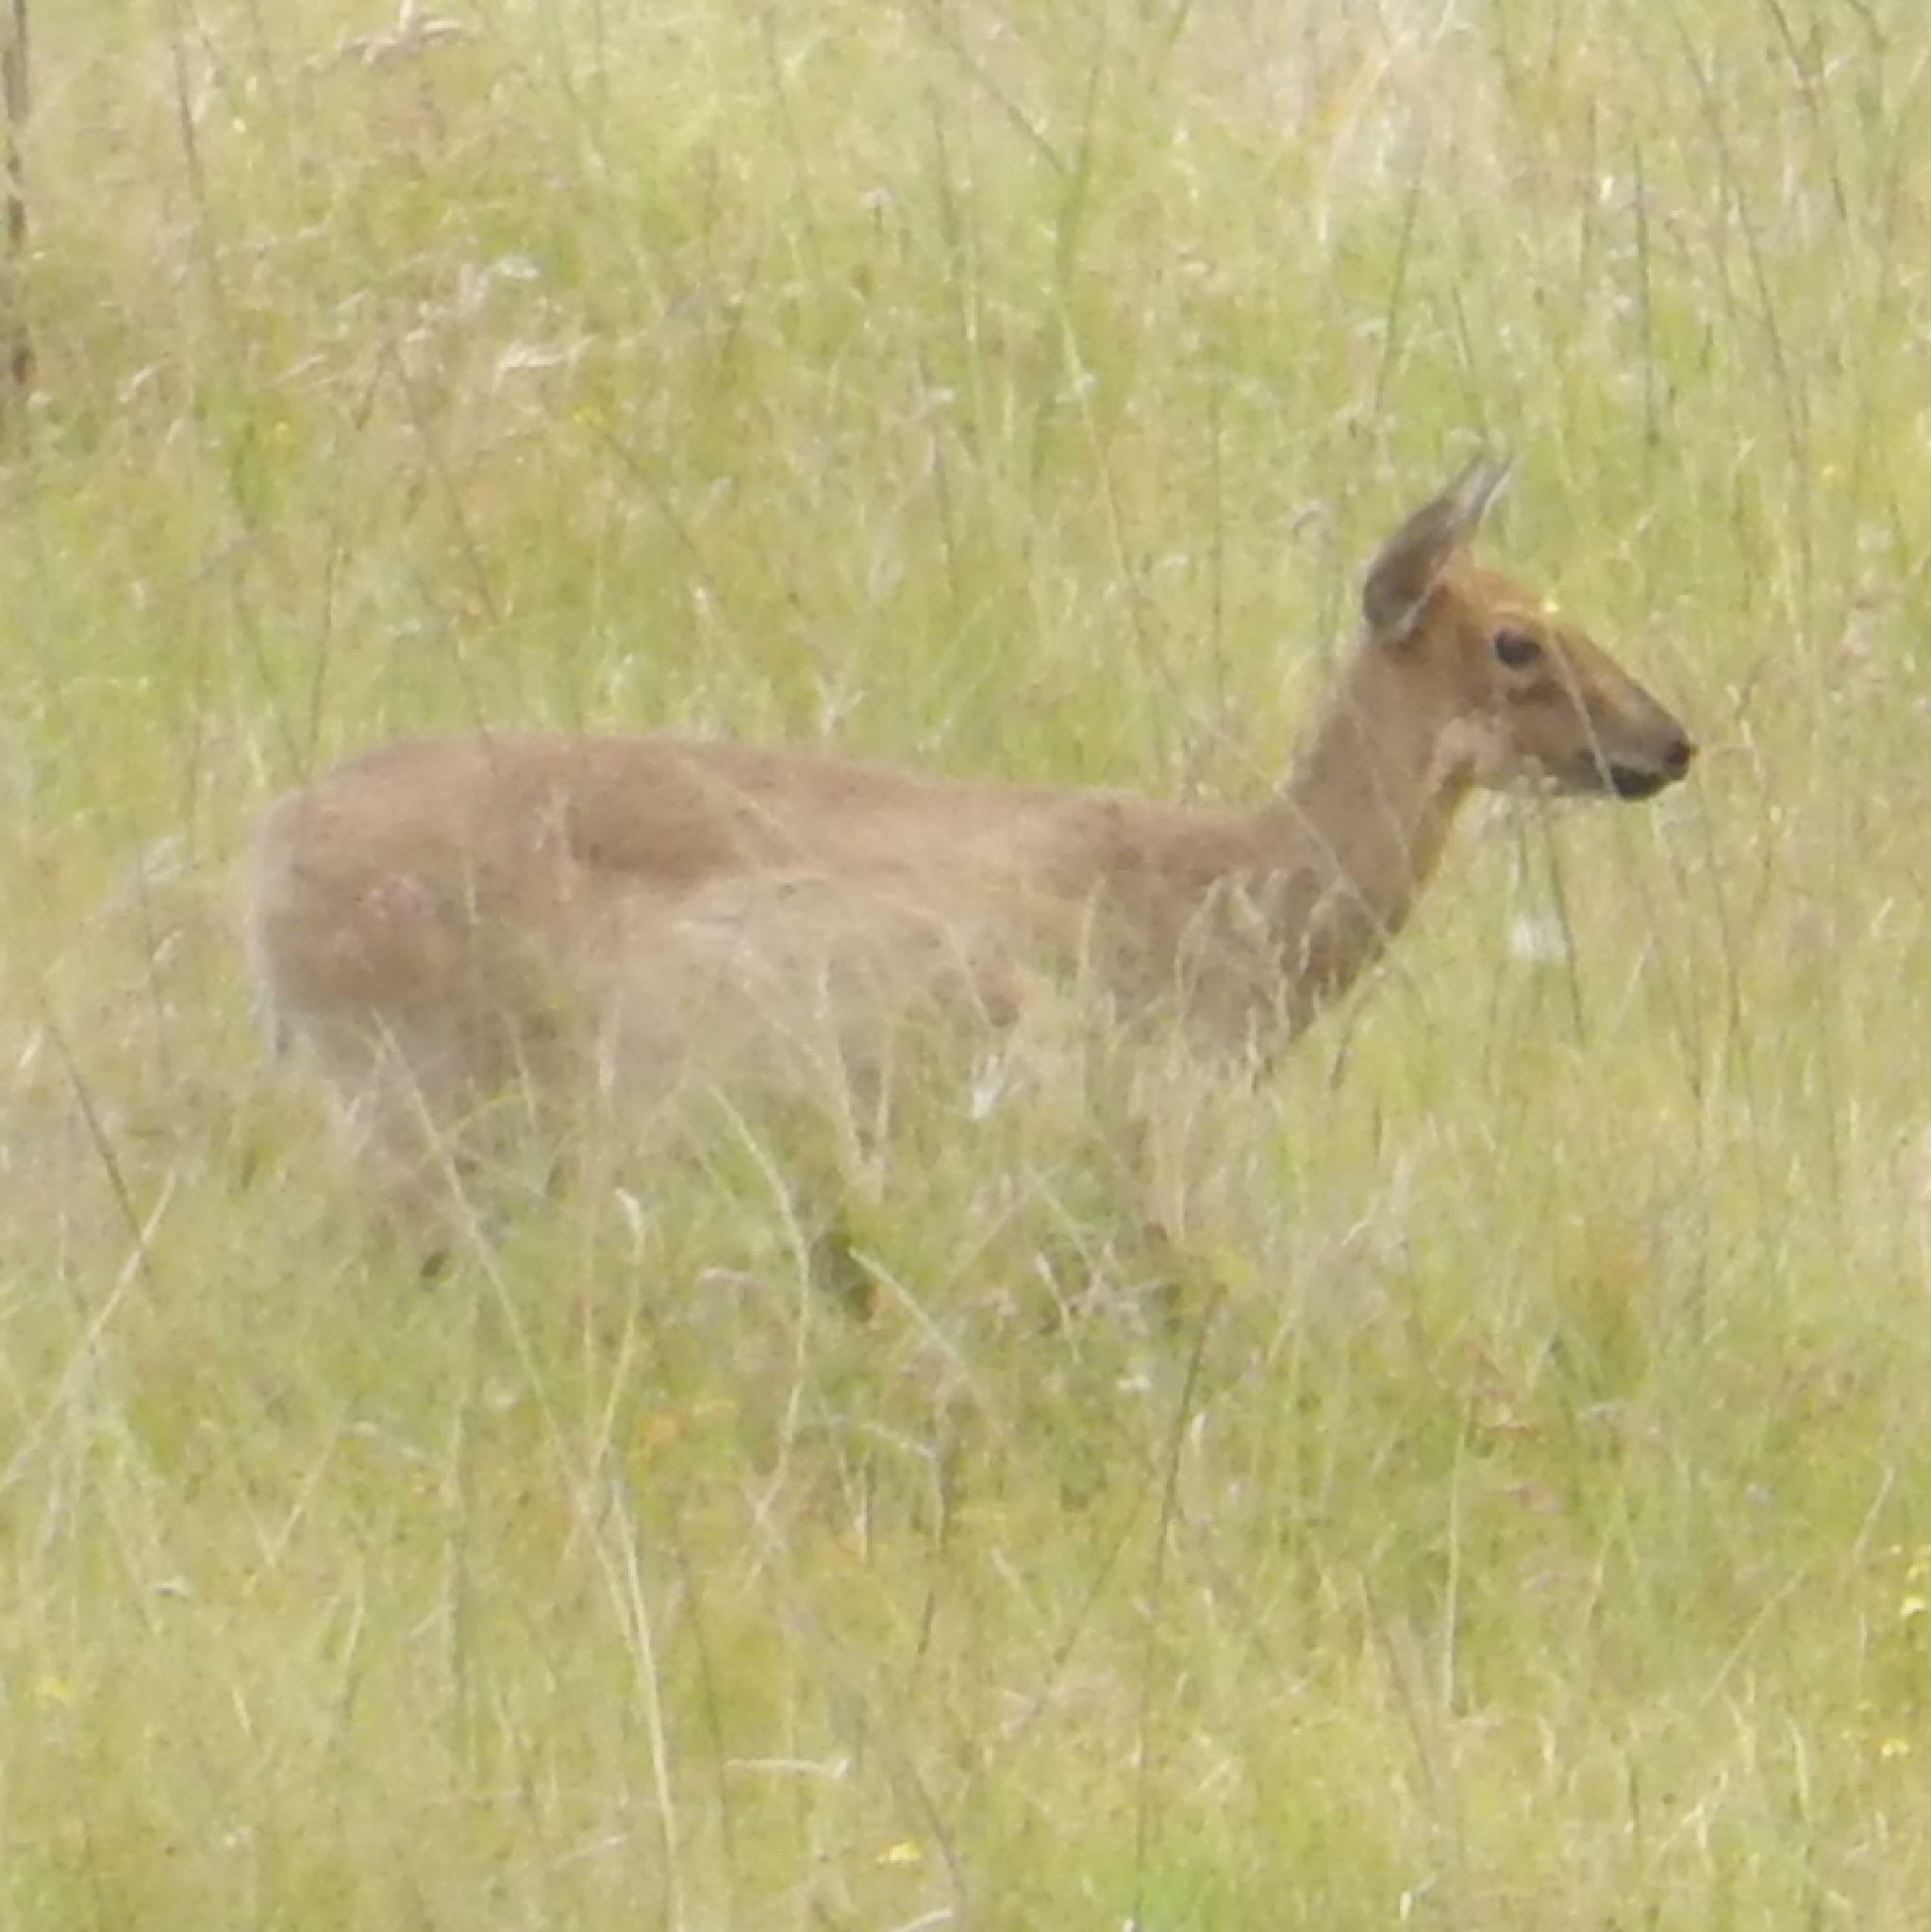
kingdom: Animalia
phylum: Chordata
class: Mammalia
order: Artiodactyla
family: Bovidae
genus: Sylvicapra
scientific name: Sylvicapra grimmia
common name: Bush duiker
